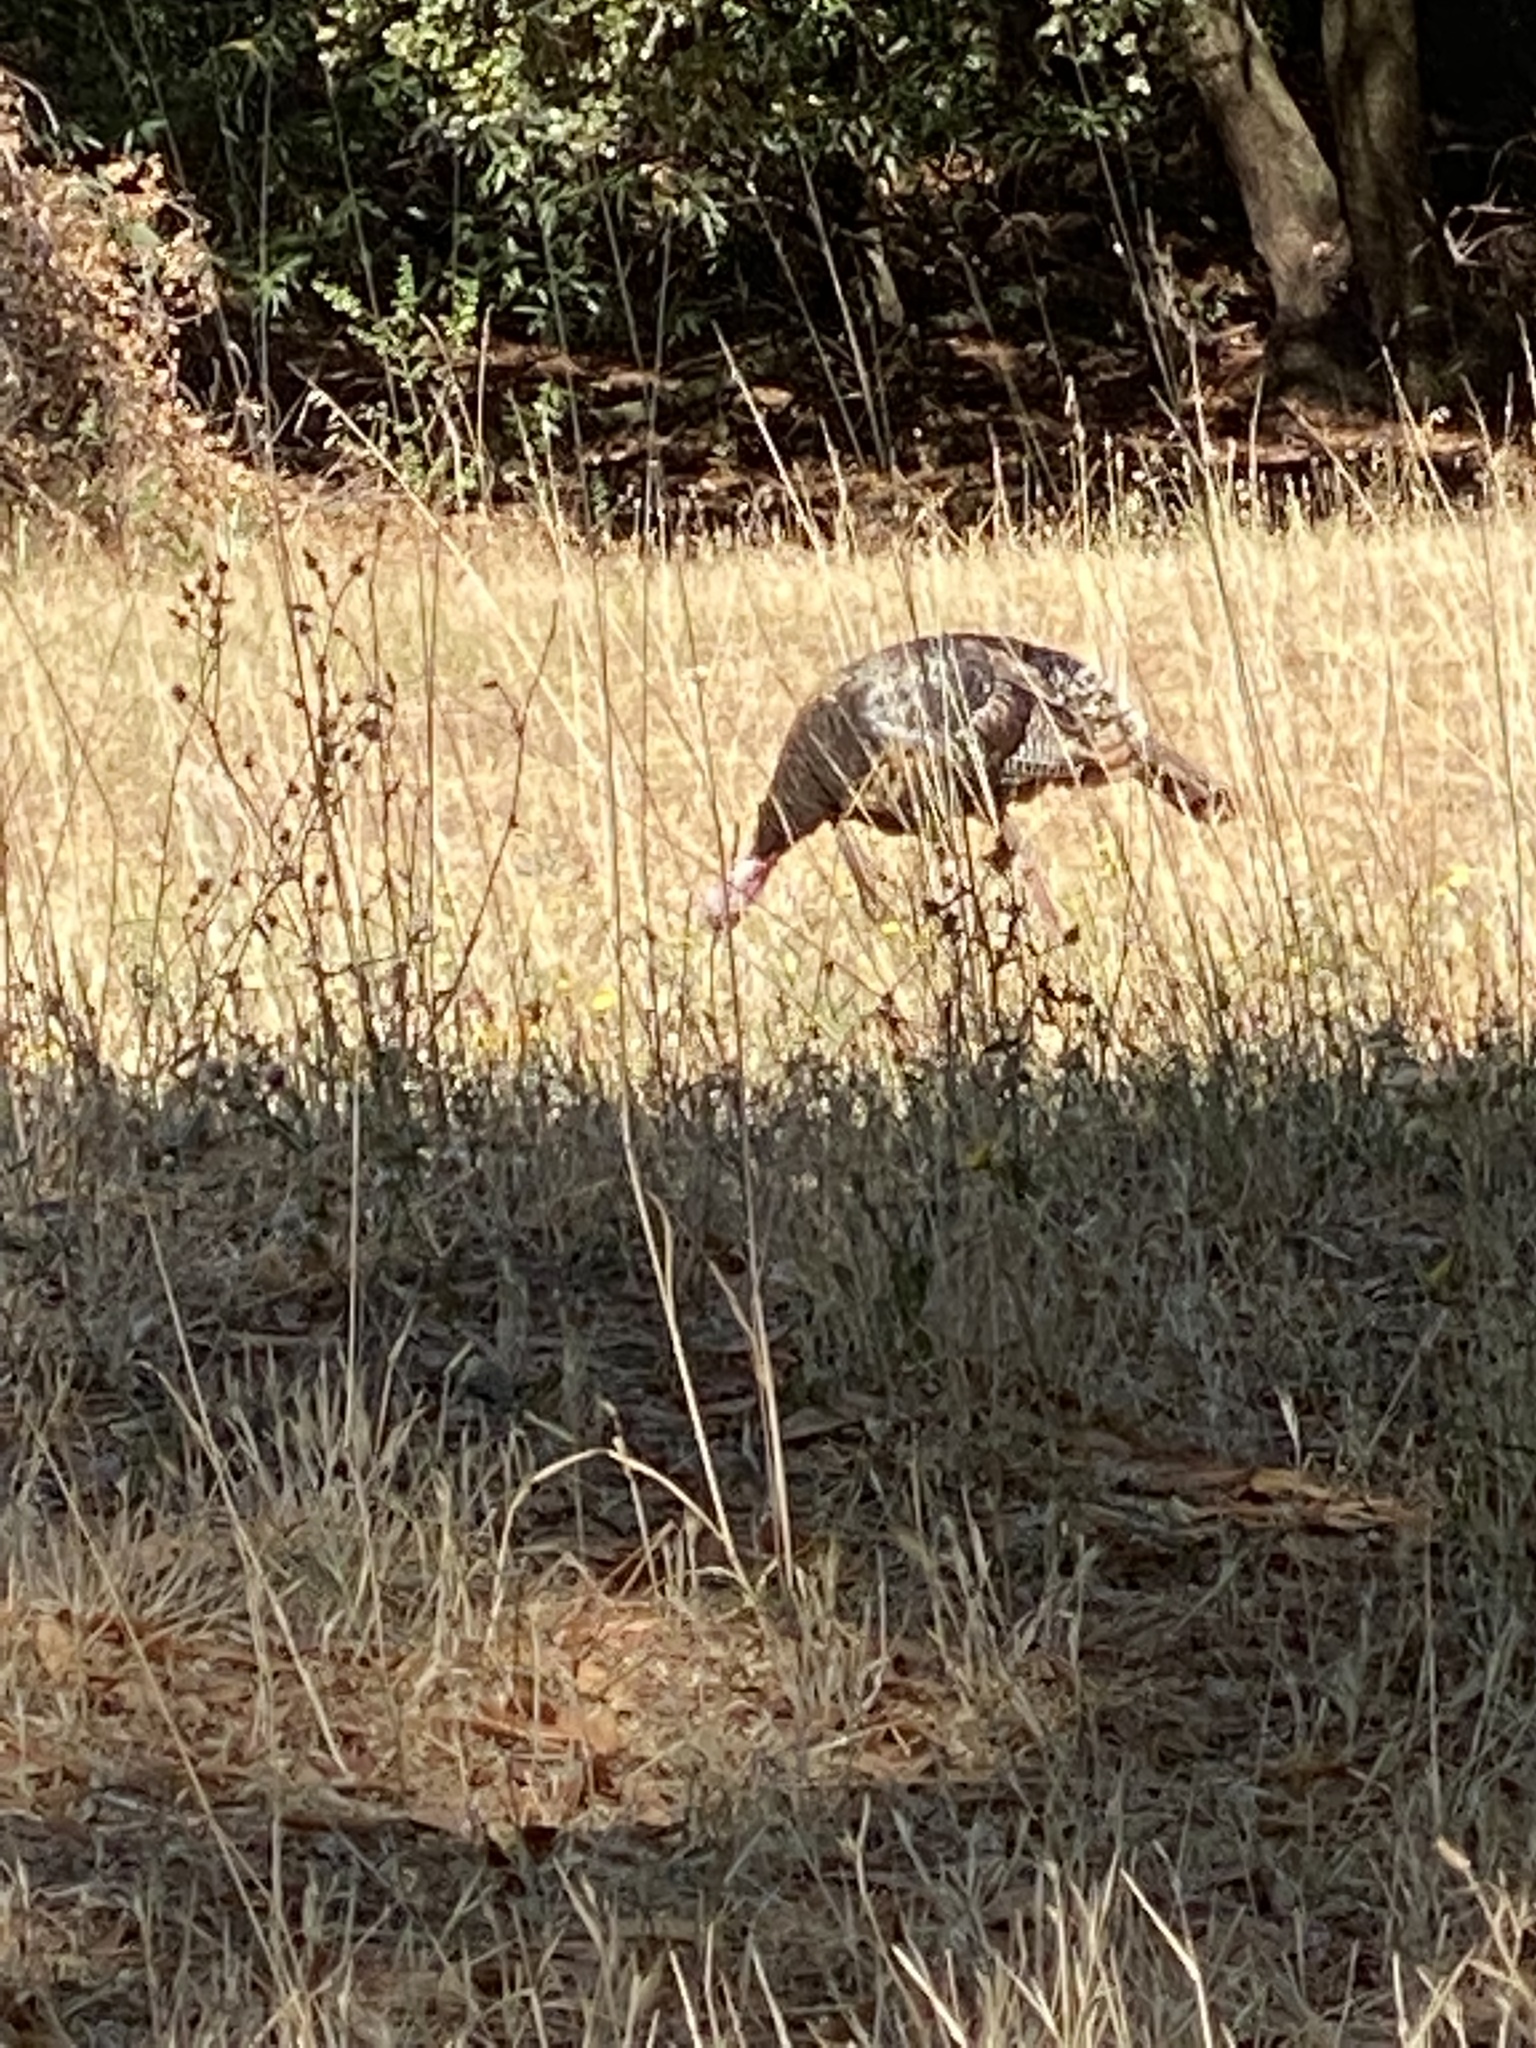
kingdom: Animalia
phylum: Chordata
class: Aves
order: Galliformes
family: Phasianidae
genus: Meleagris
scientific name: Meleagris gallopavo
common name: Wild turkey
